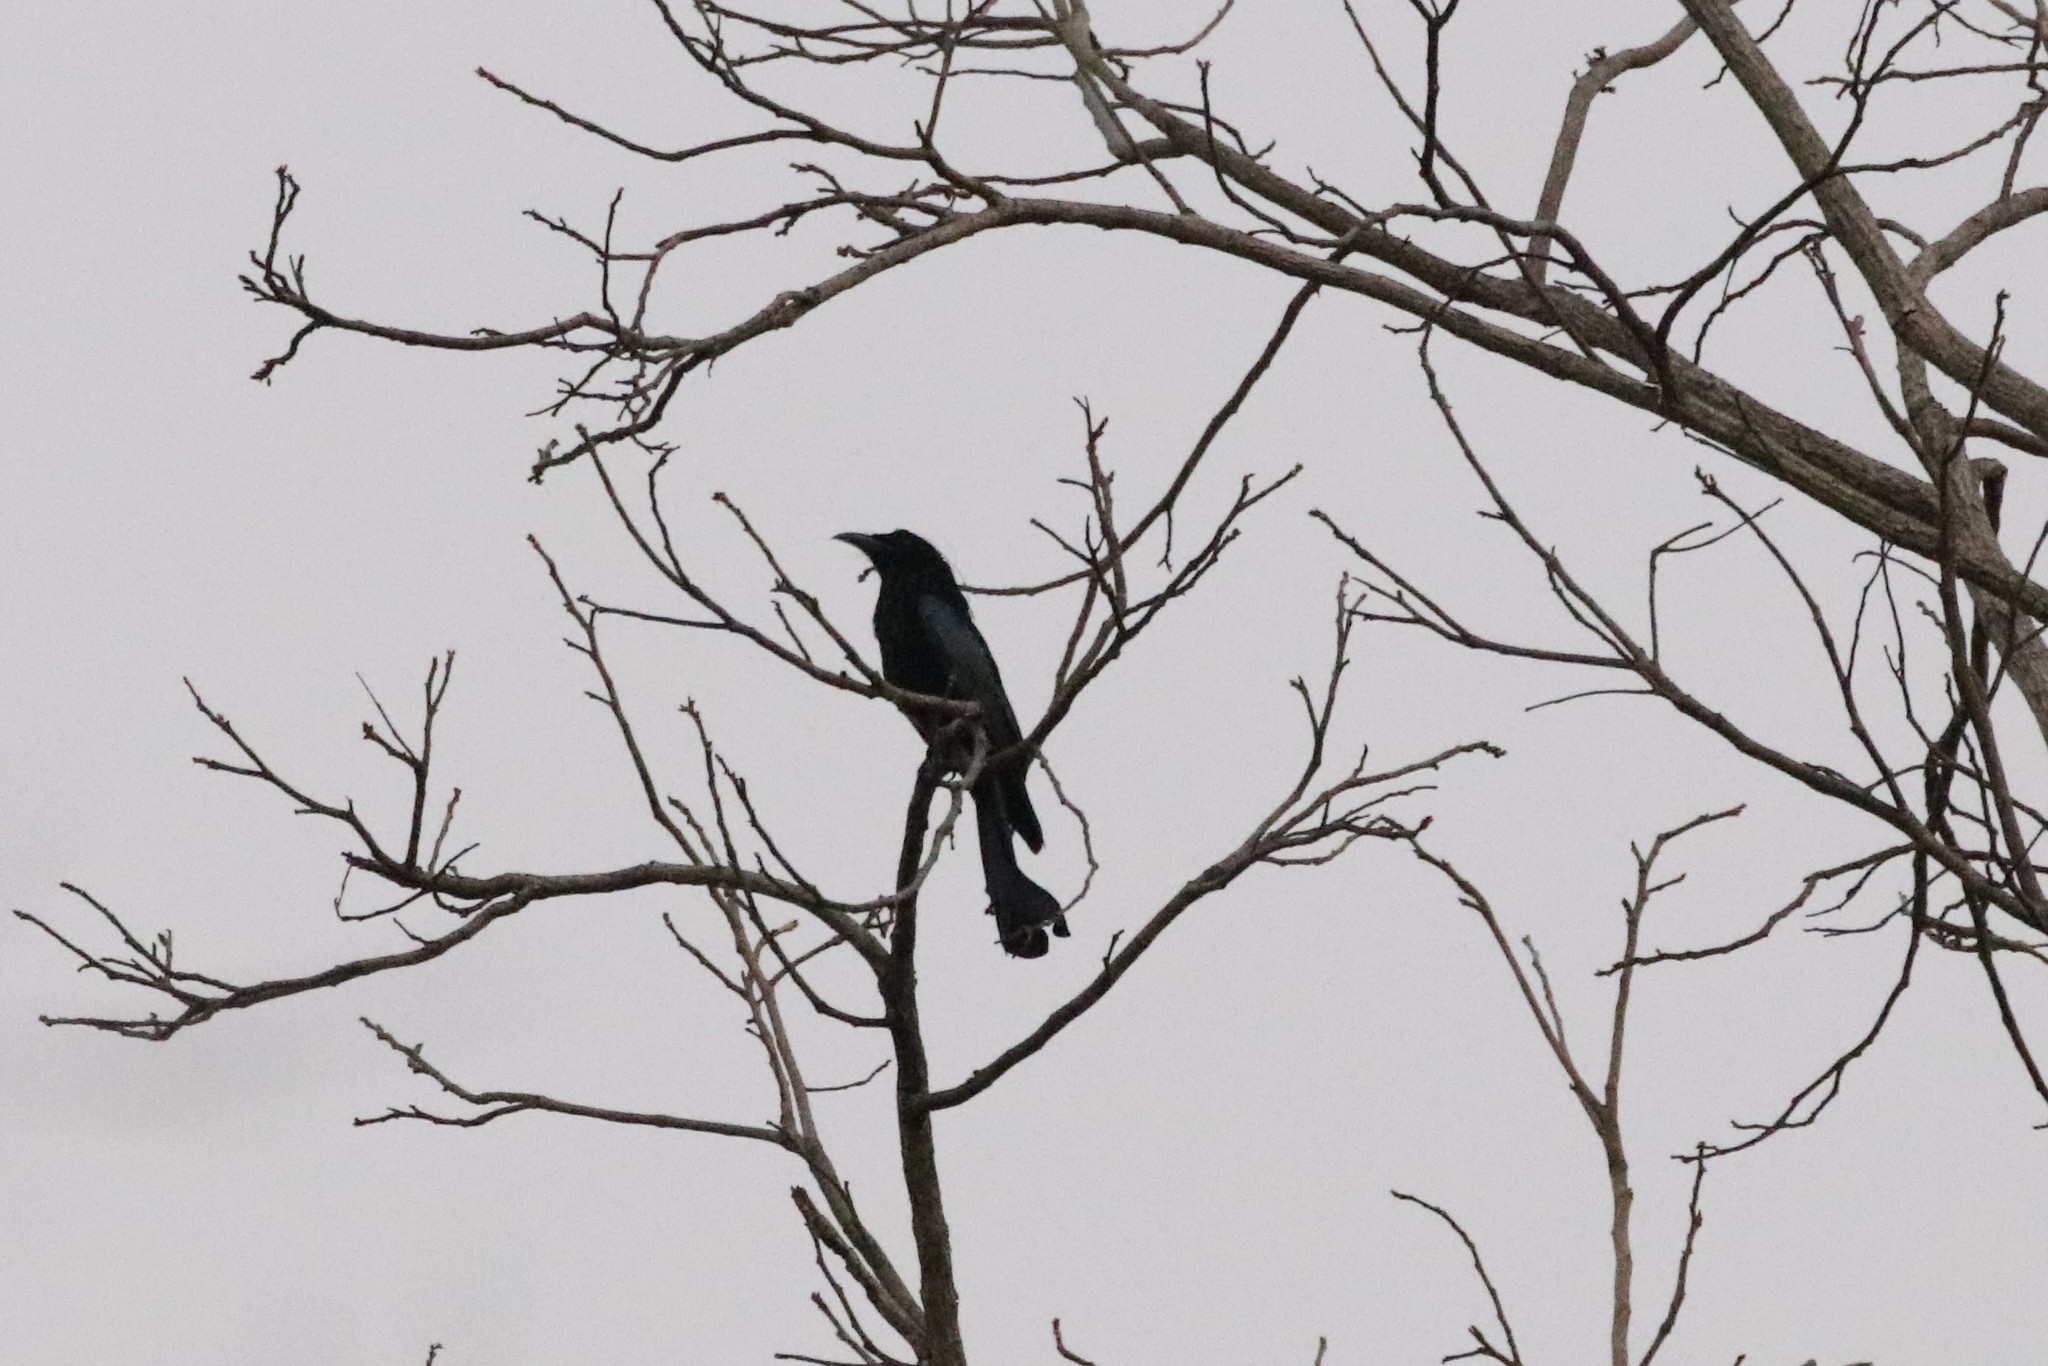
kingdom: Animalia
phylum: Chordata
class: Aves
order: Passeriformes
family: Dicruridae
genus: Dicrurus
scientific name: Dicrurus hottentottus
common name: Hair-crested drongo
